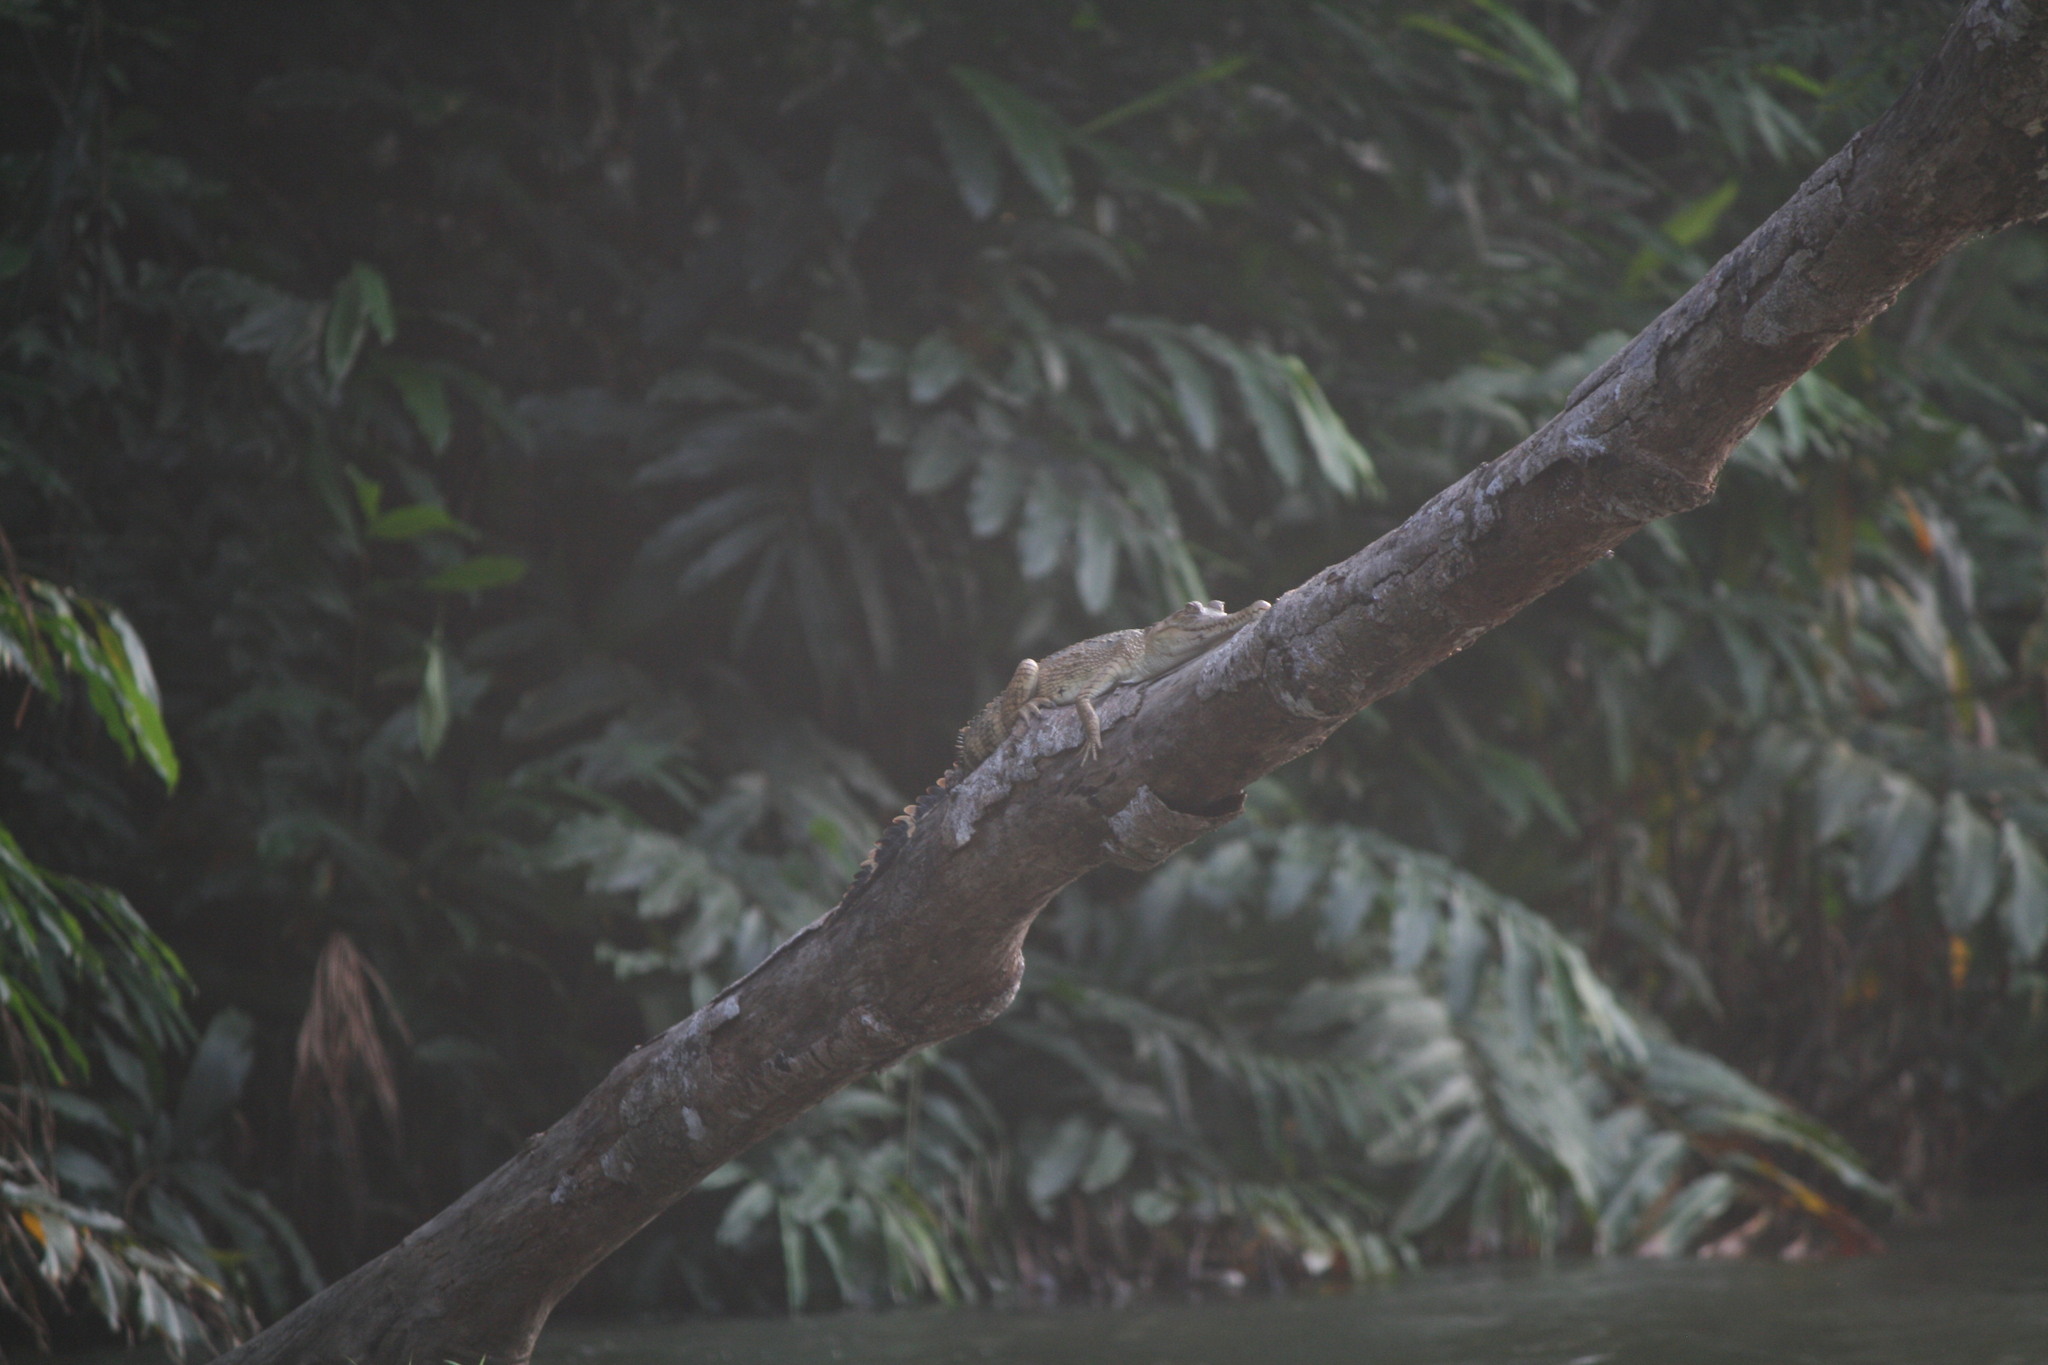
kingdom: Animalia
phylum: Chordata
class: Crocodylia
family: Crocodylidae
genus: Mecistops
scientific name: Mecistops leptorhynchus
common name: Central african slender-snouted crocodile
